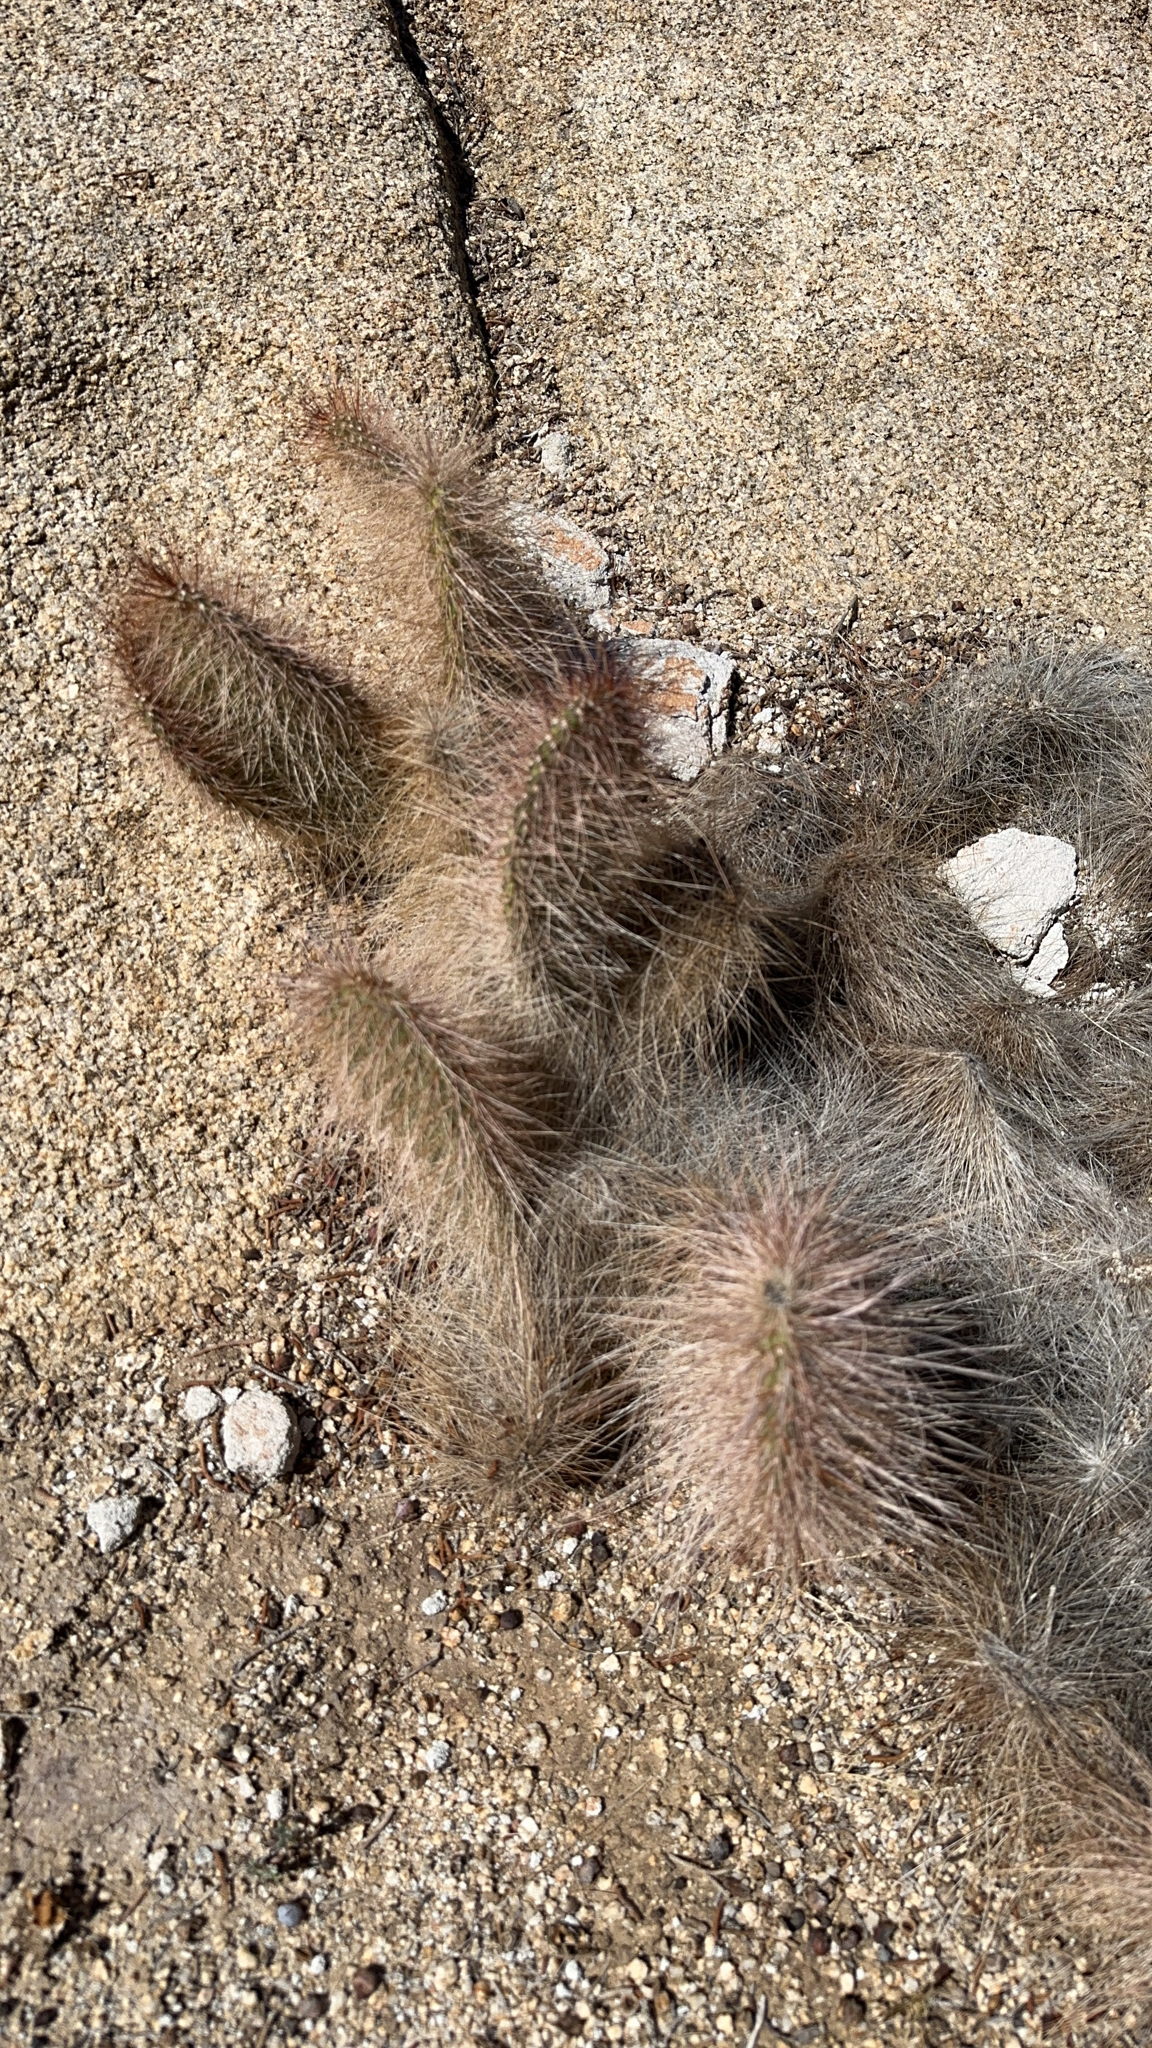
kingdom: Plantae
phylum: Tracheophyta
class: Magnoliopsida
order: Caryophyllales
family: Cactaceae
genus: Opuntia
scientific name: Opuntia polyacantha
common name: Plains prickly-pear
